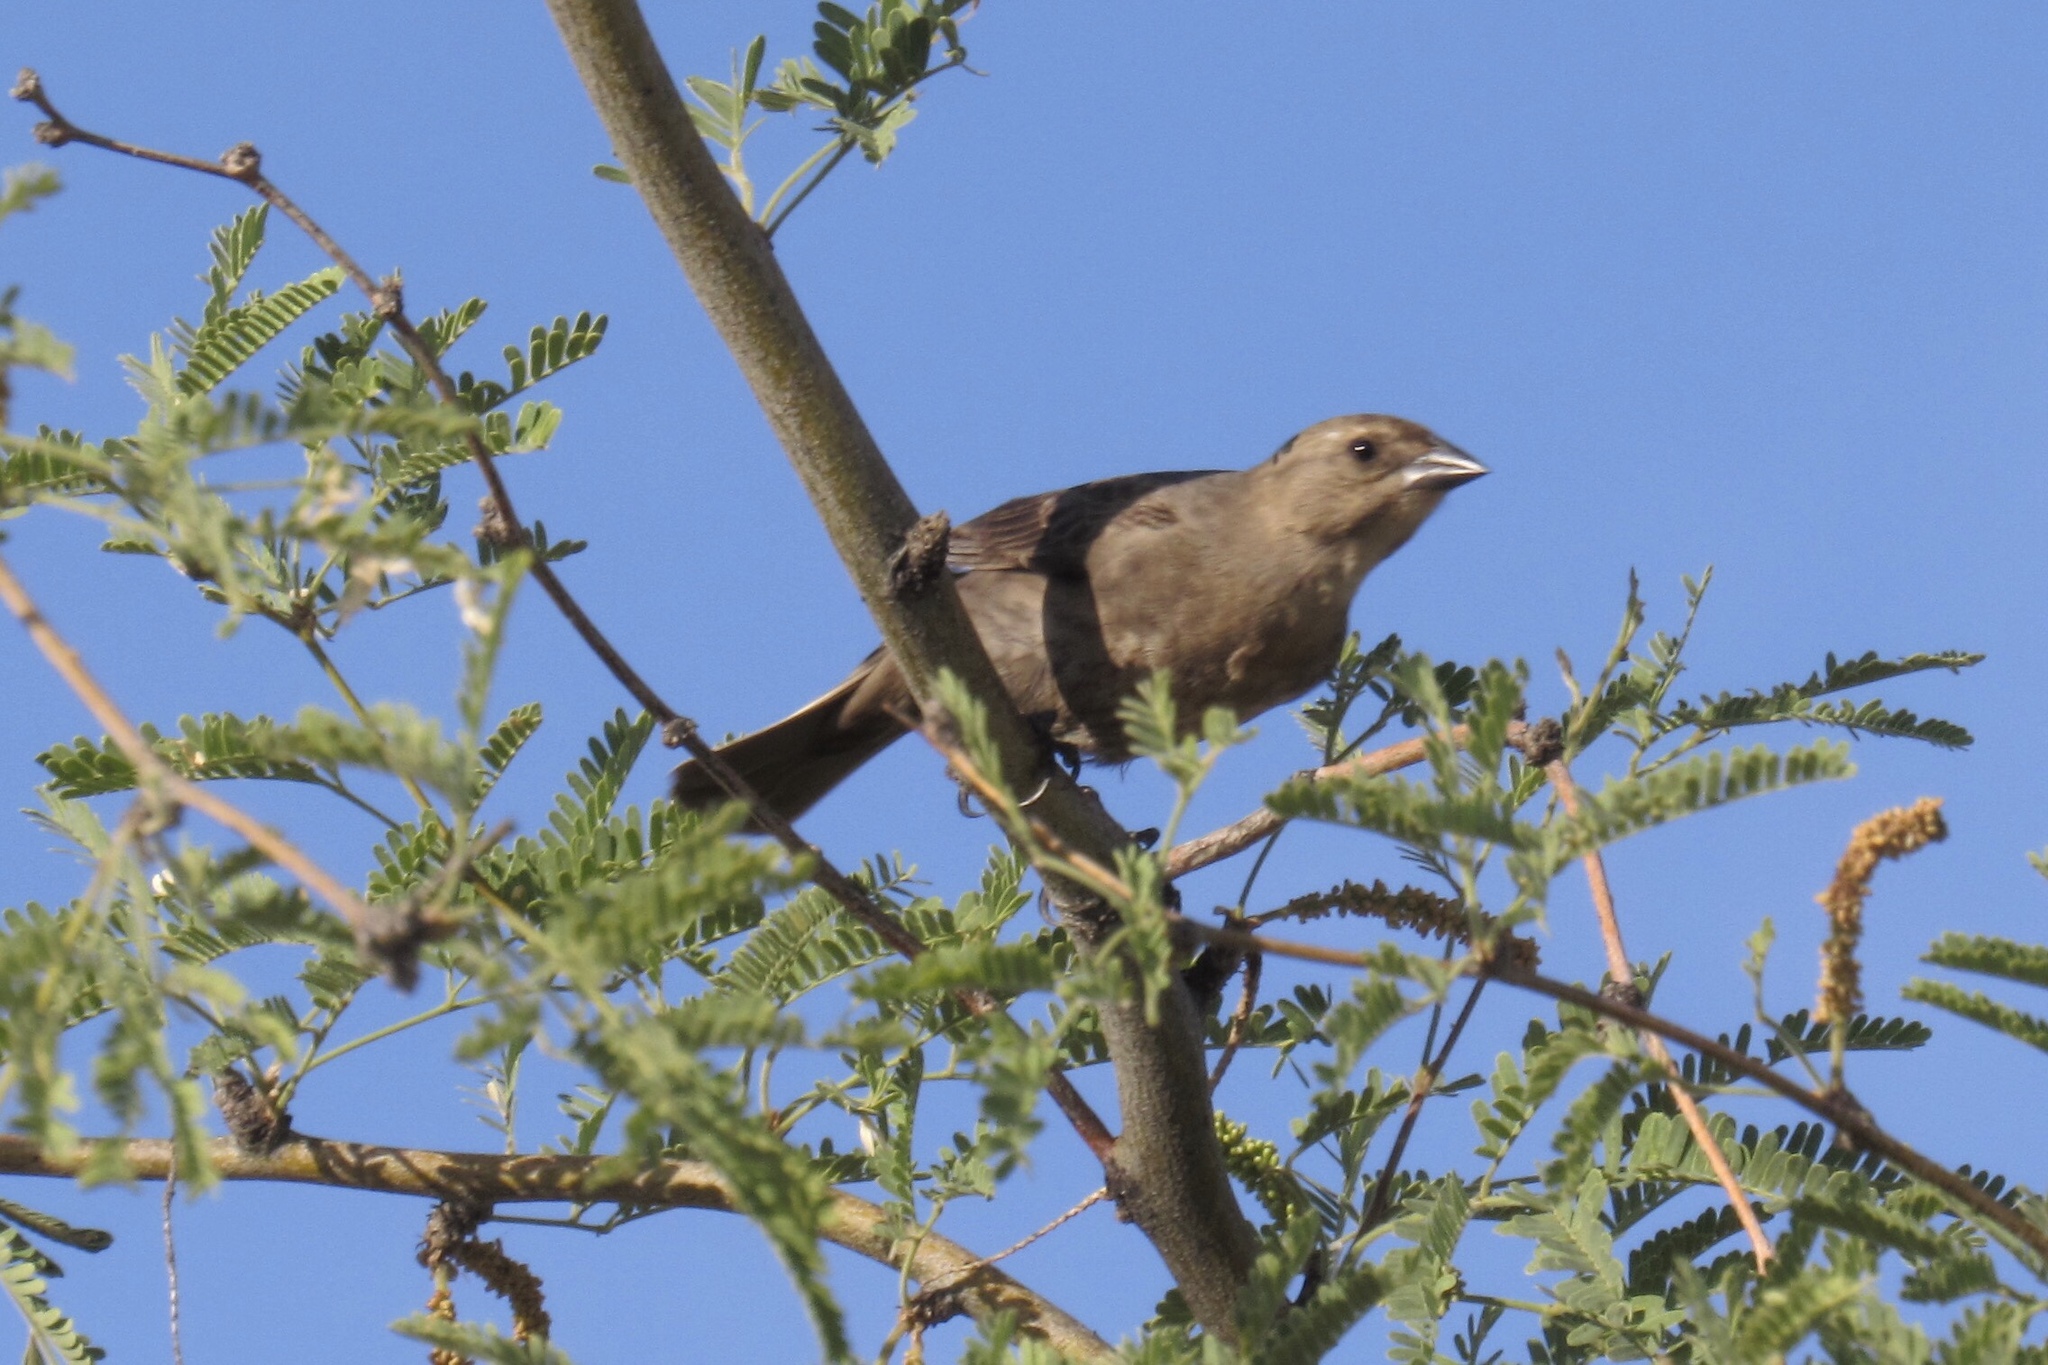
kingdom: Animalia
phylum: Chordata
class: Aves
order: Passeriformes
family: Icteridae
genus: Molothrus
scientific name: Molothrus ater
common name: Brown-headed cowbird
